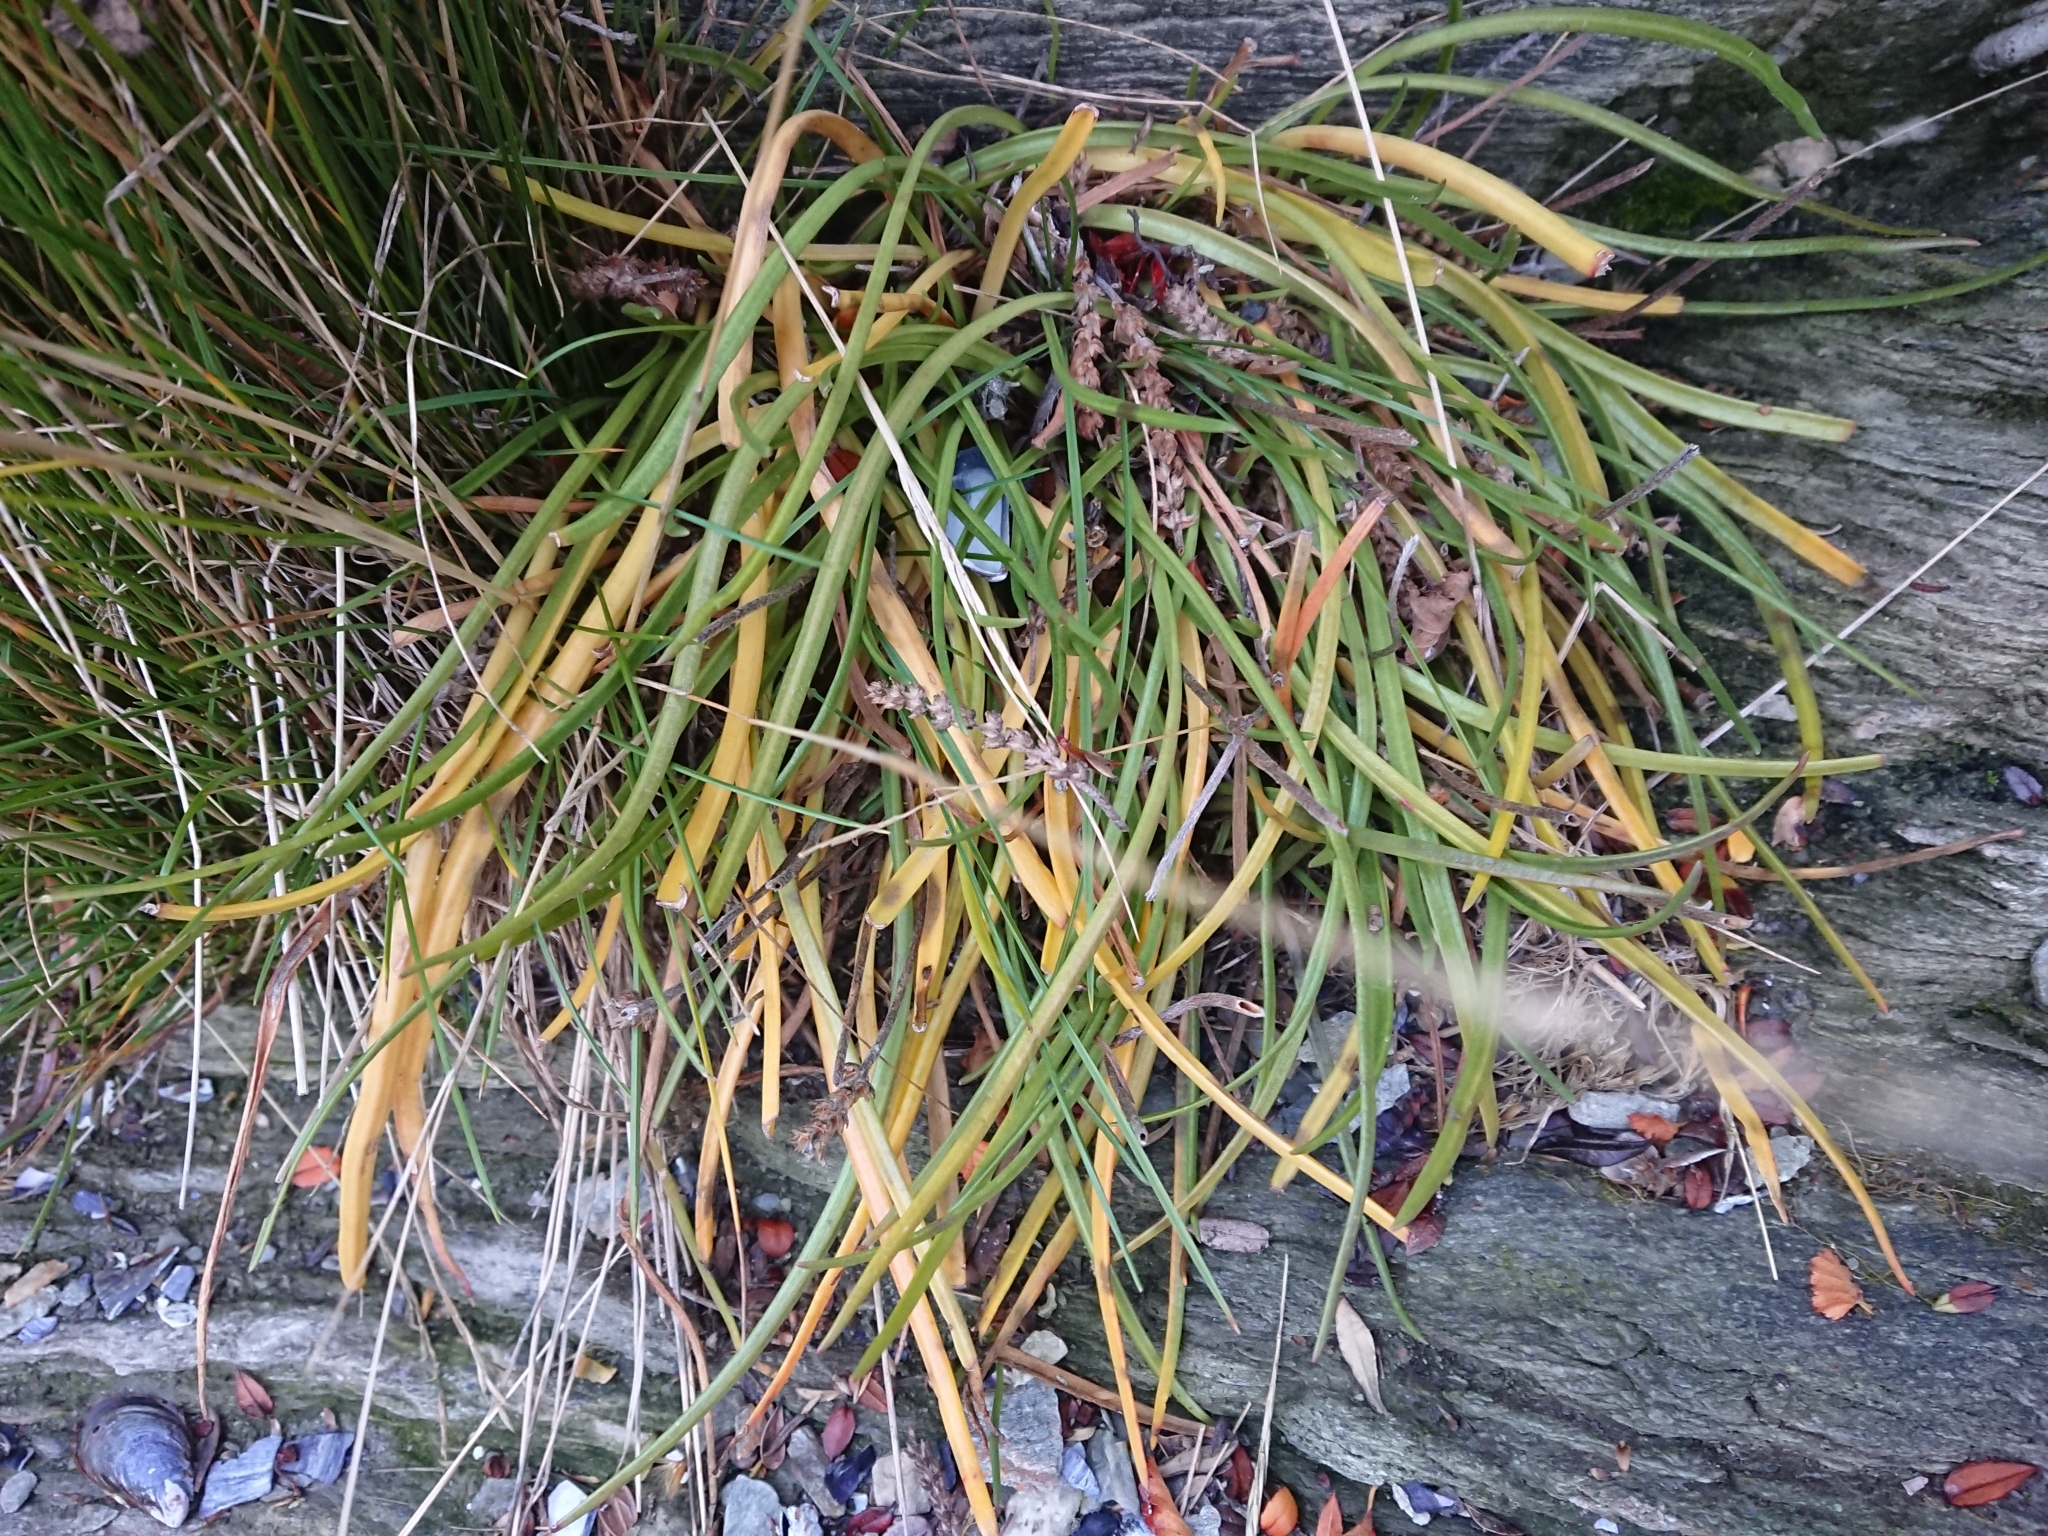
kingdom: Plantae
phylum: Tracheophyta
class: Magnoliopsida
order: Lamiales
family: Plantaginaceae
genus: Plantago
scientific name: Plantago maritima
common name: Sea plantain
